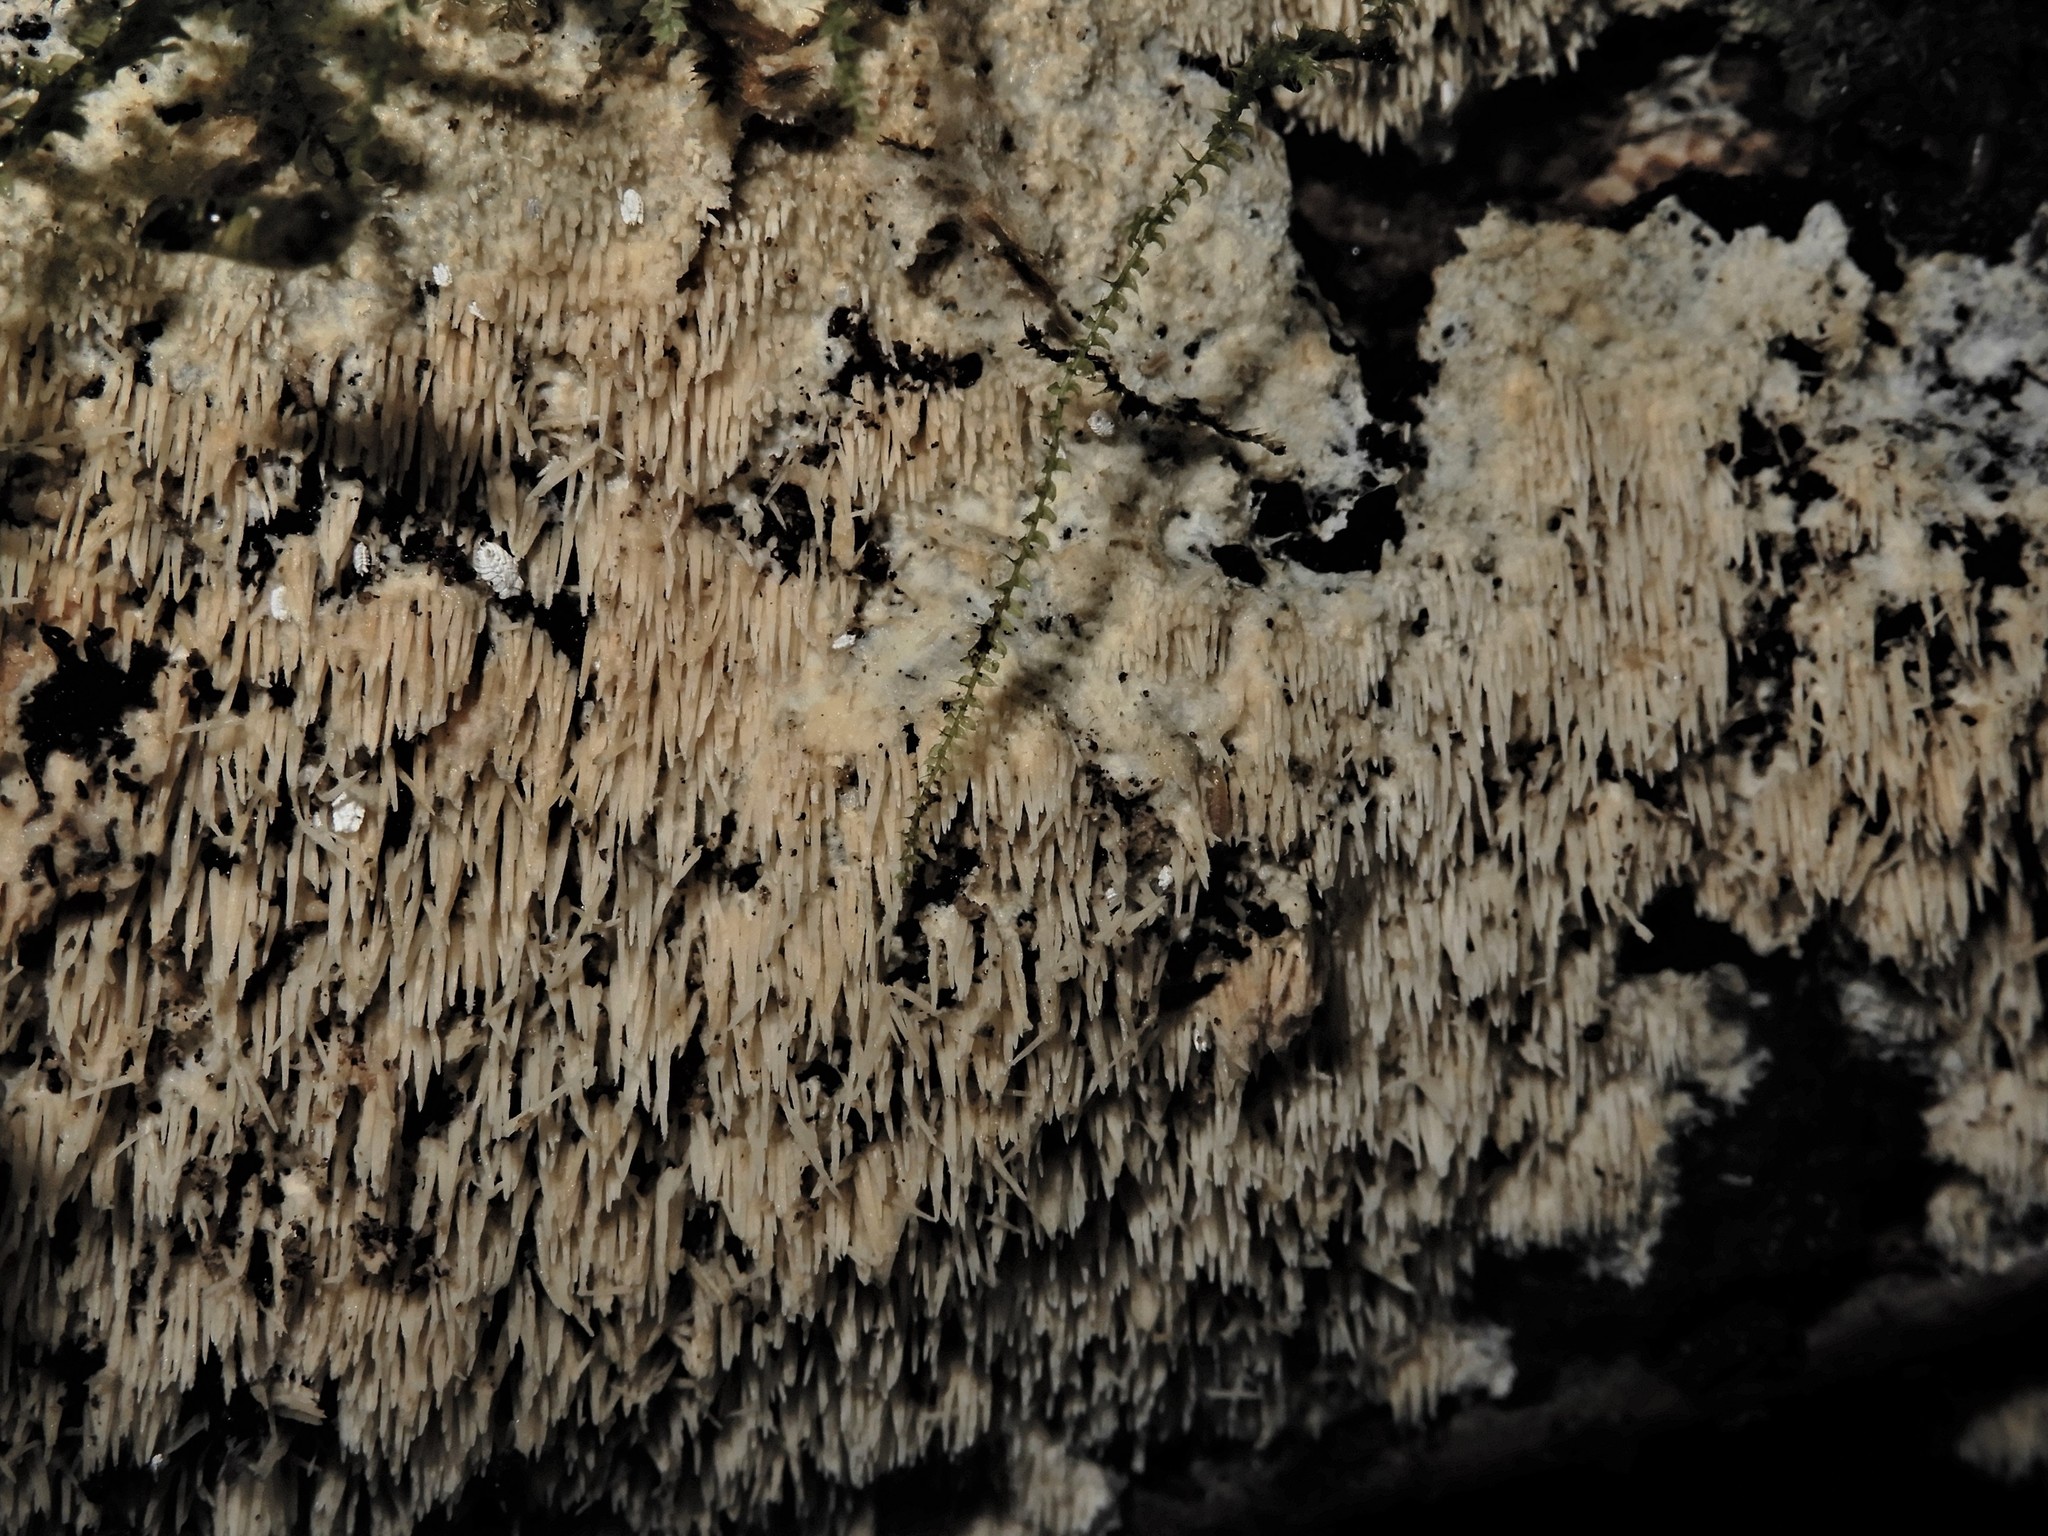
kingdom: Fungi
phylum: Basidiomycota
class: Agaricomycetes
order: Russulales
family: Hericiaceae
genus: Dentipellicula
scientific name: Dentipellicula leptodon
